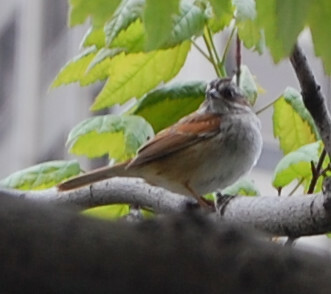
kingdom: Animalia
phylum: Chordata
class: Aves
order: Passeriformes
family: Passerellidae
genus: Melospiza
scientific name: Melospiza georgiana
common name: Swamp sparrow
